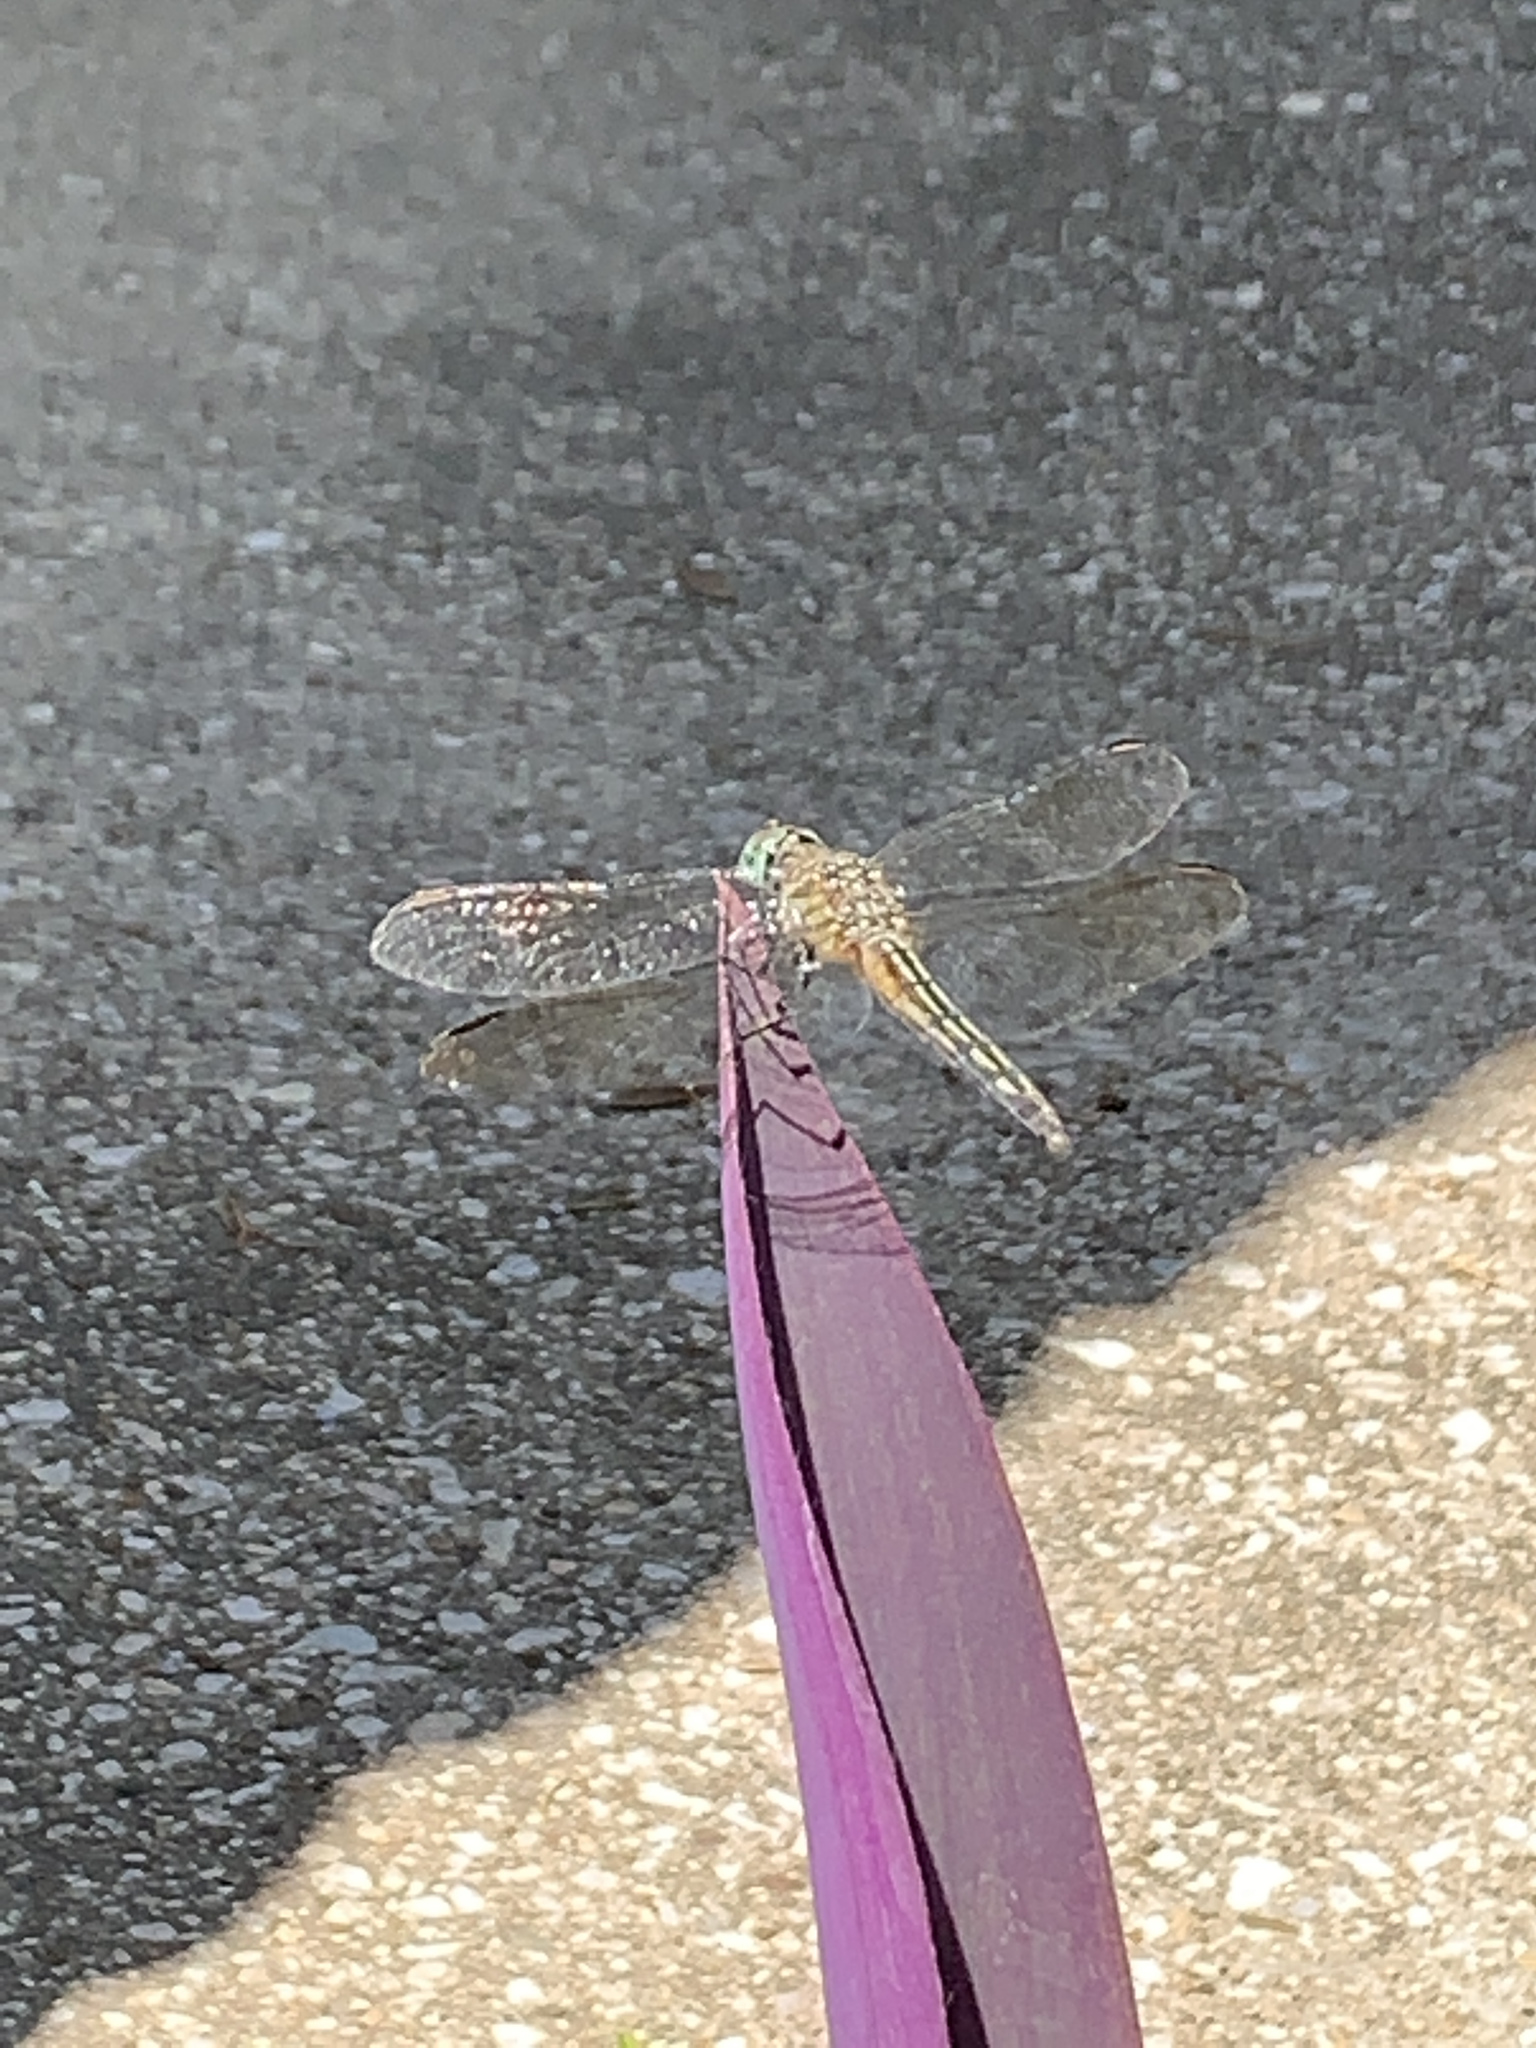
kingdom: Animalia
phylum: Arthropoda
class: Insecta
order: Odonata
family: Libellulidae
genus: Pachydiplax
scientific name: Pachydiplax longipennis
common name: Blue dasher
